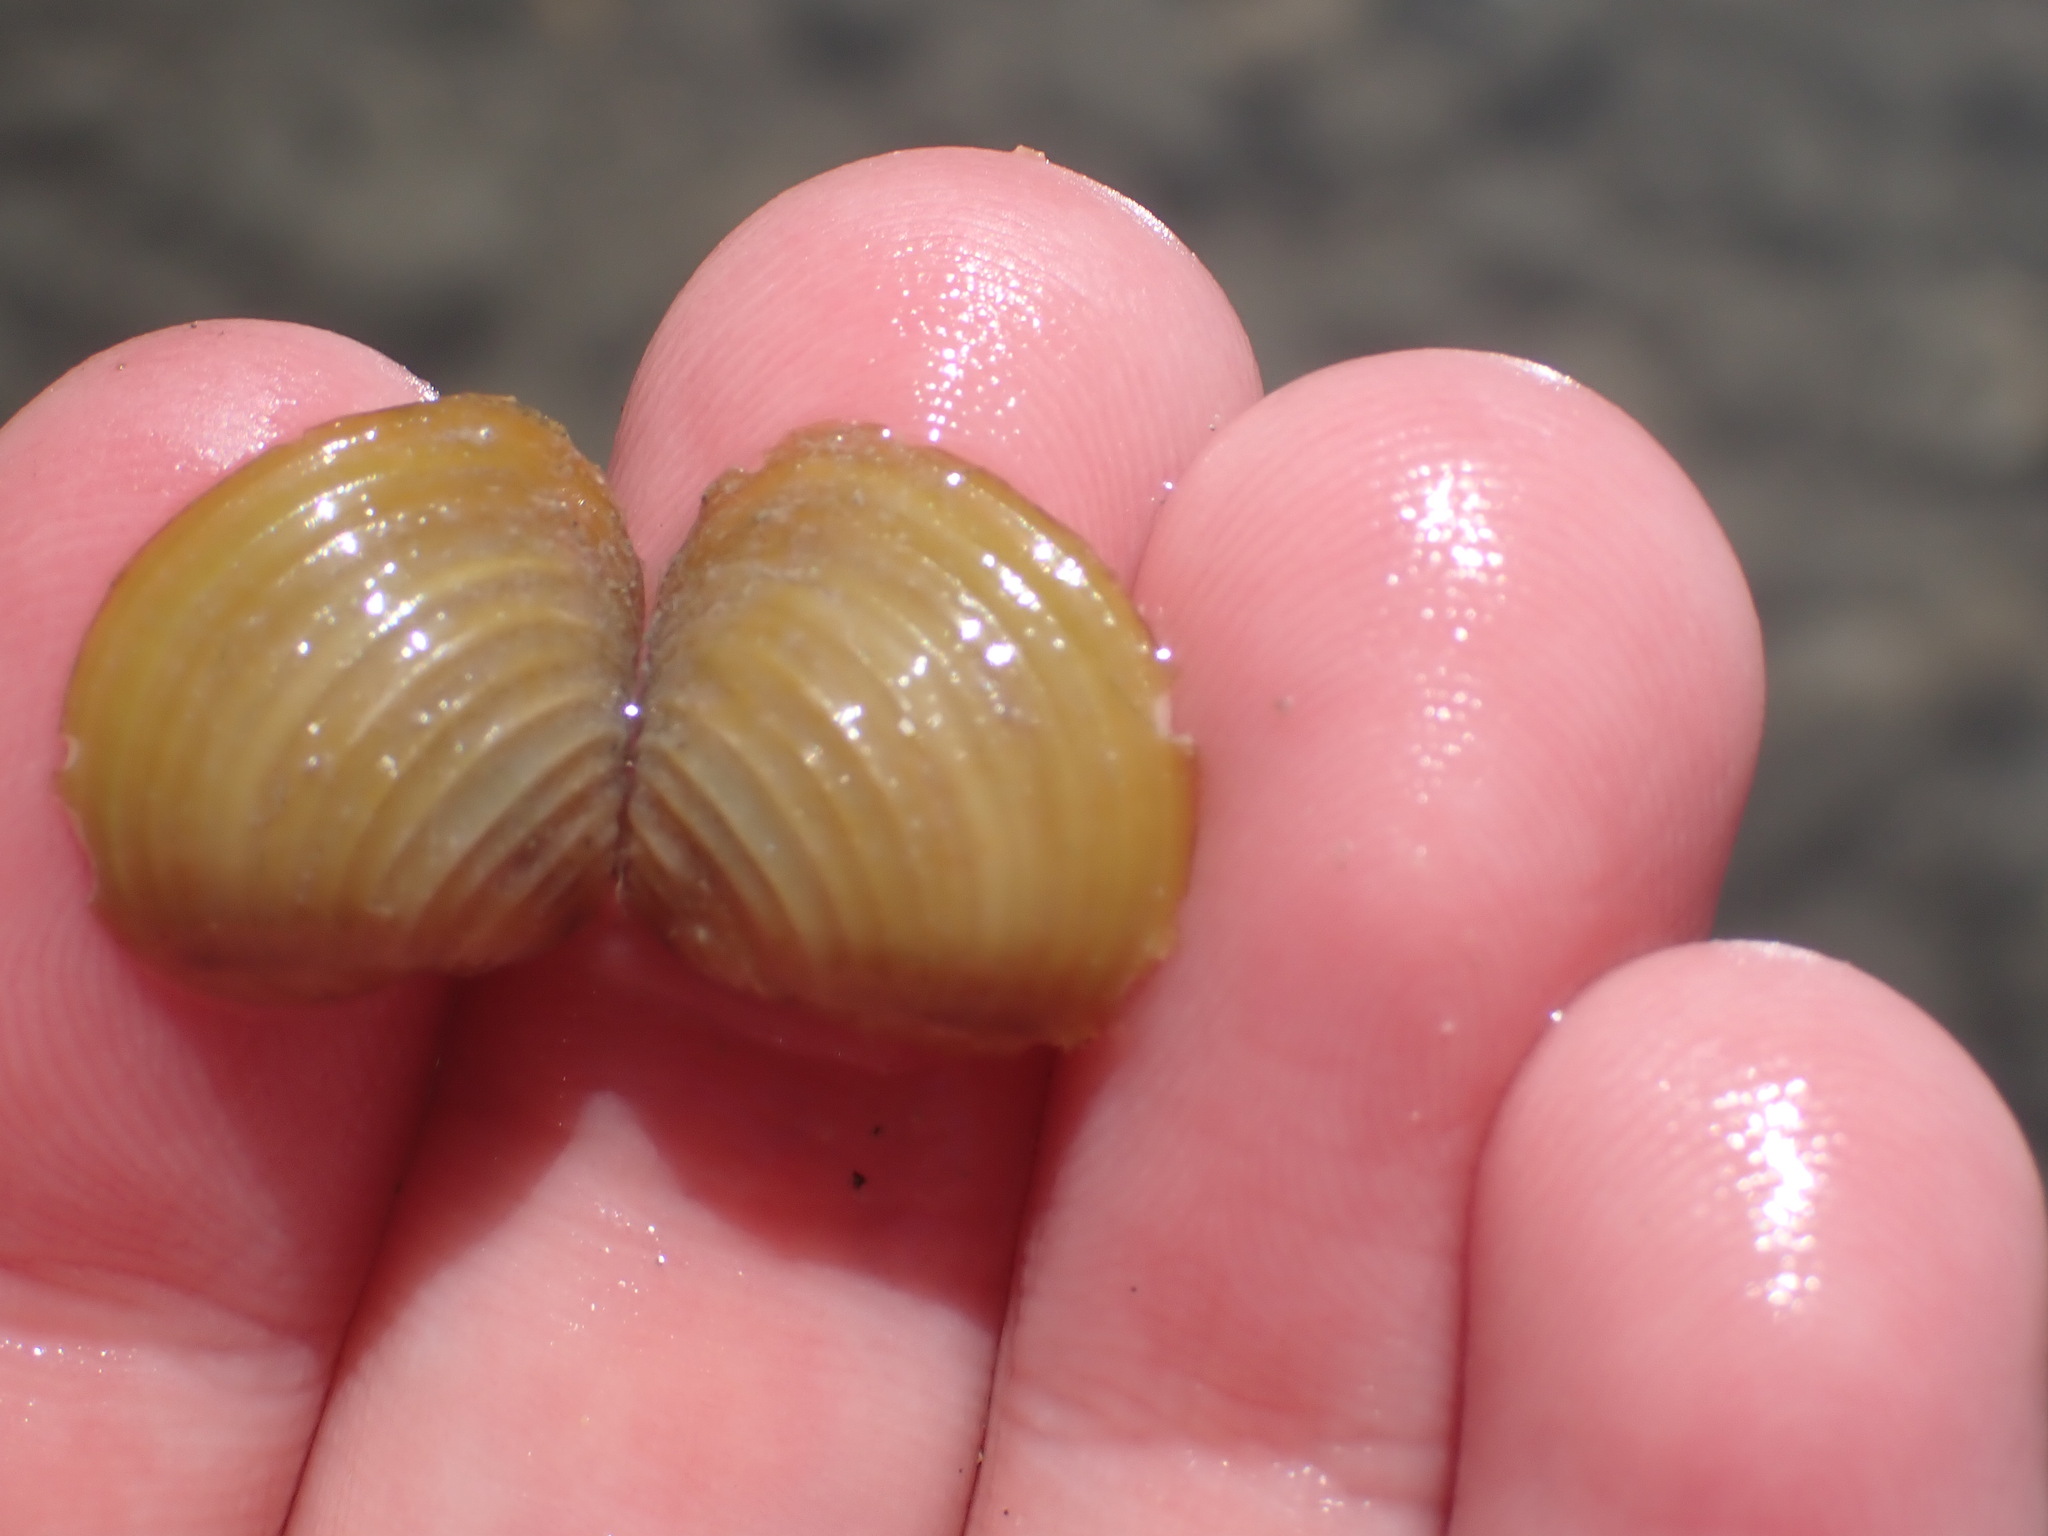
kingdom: Animalia
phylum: Mollusca
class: Bivalvia
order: Venerida
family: Cyrenidae
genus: Corbicula
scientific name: Corbicula fluminea
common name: Asian clam
